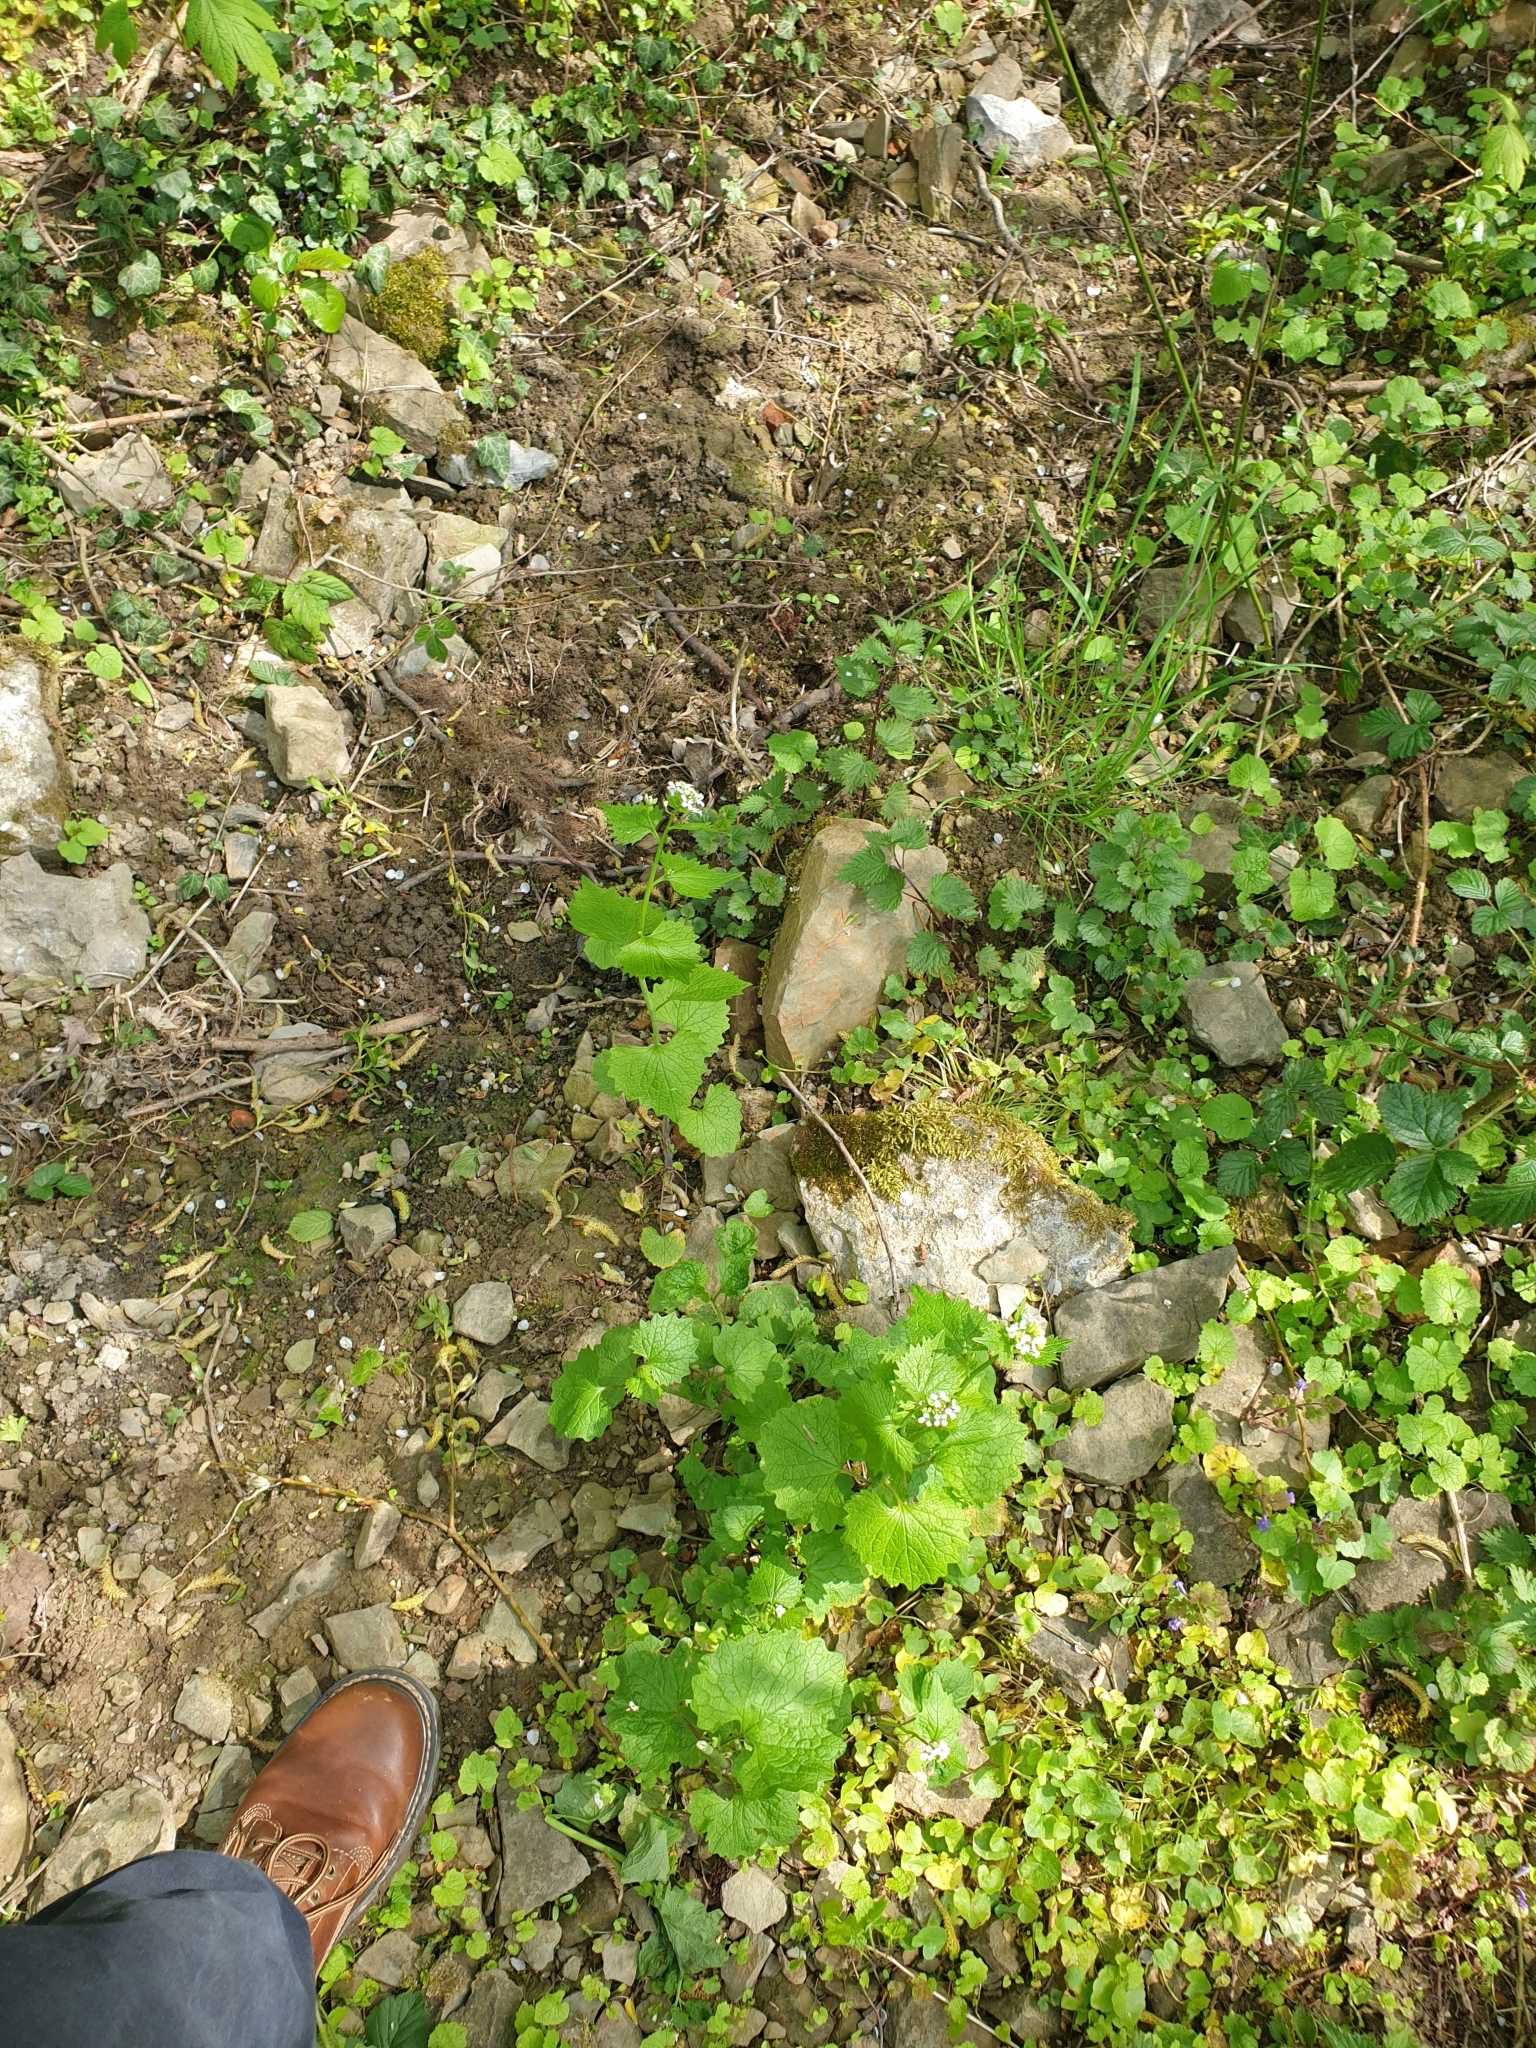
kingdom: Plantae
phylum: Tracheophyta
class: Magnoliopsida
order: Brassicales
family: Brassicaceae
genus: Alliaria
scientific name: Alliaria petiolata
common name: Garlic mustard
